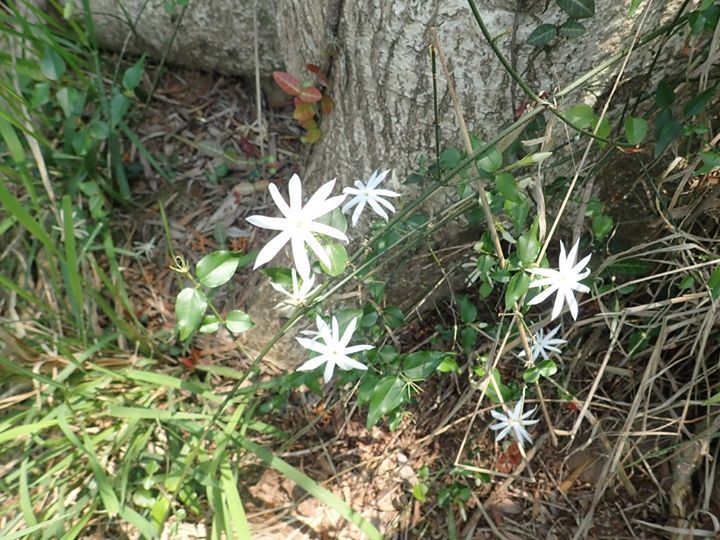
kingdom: Plantae
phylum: Tracheophyta
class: Magnoliopsida
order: Lamiales
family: Oleaceae
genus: Jasminum
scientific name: Jasminum nervosum
